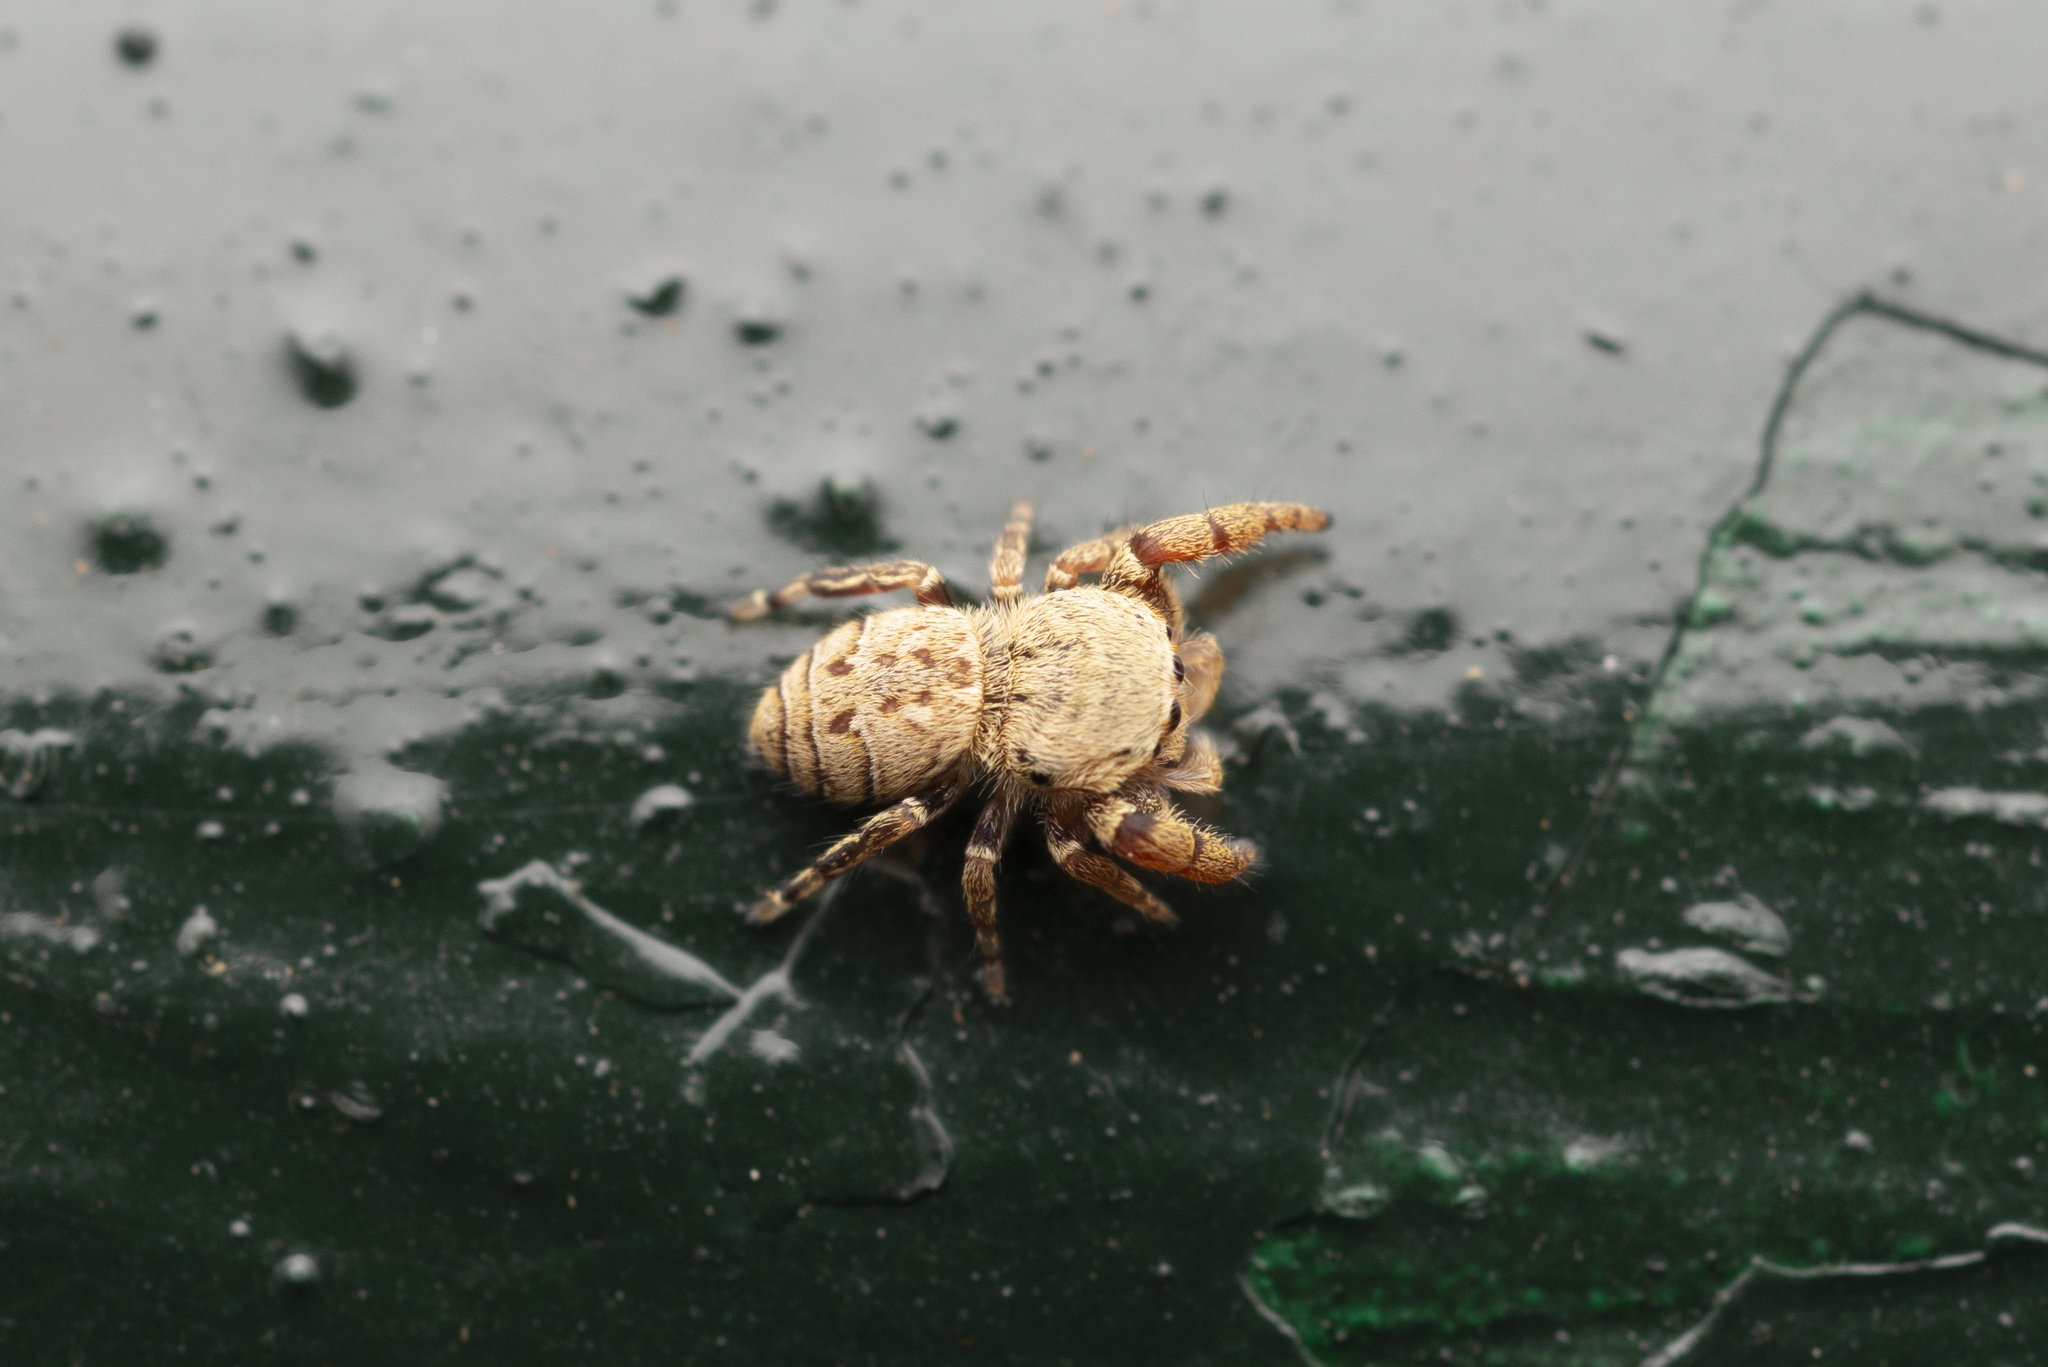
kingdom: Animalia
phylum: Arthropoda
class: Arachnida
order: Araneae
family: Salticidae
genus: Rhene
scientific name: Rhene flavicomans
